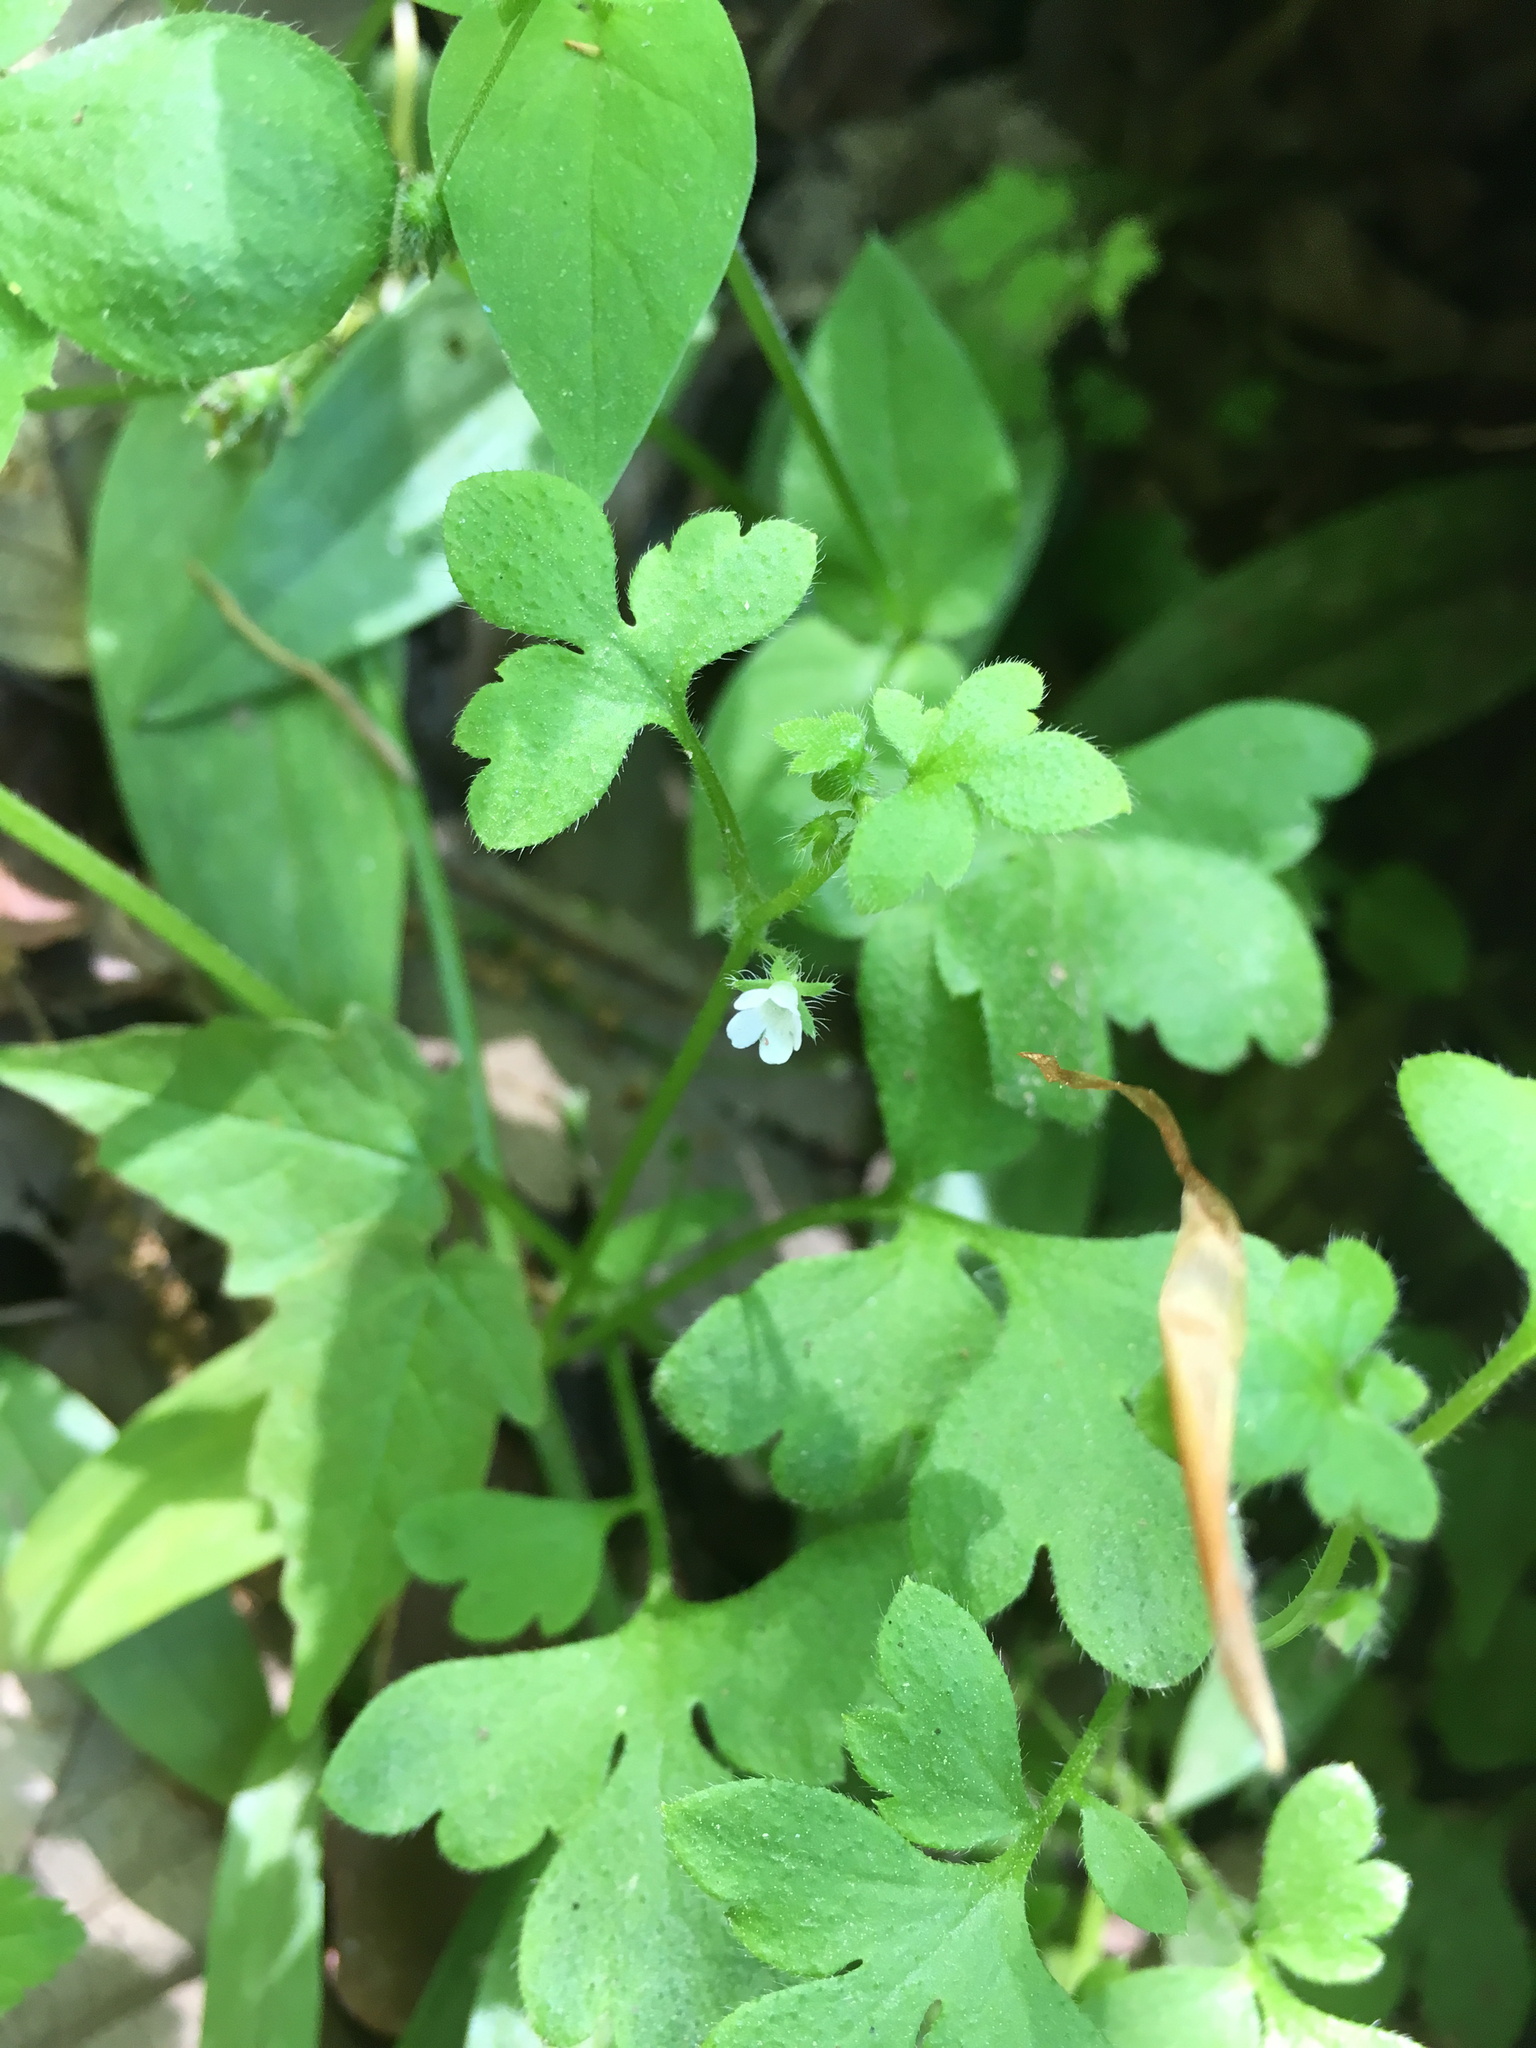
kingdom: Plantae
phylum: Tracheophyta
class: Magnoliopsida
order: Boraginales
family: Hydrophyllaceae
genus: Nemophila
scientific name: Nemophila aphylla
